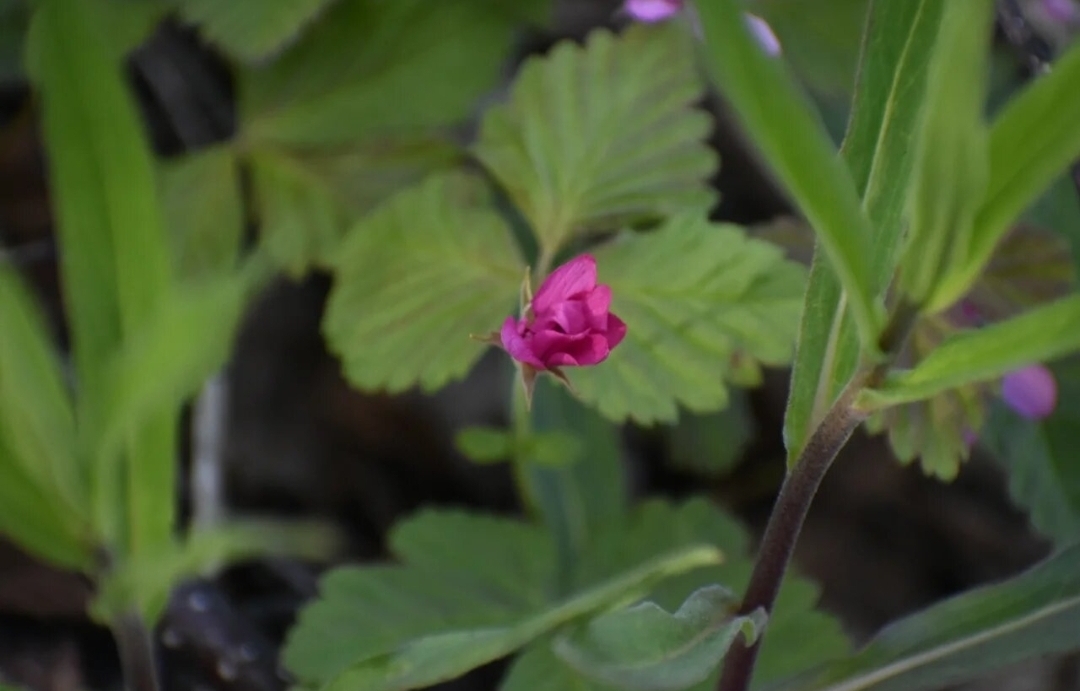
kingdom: Plantae
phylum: Tracheophyta
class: Magnoliopsida
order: Rosales
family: Rosaceae
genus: Rubus
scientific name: Rubus arcticus
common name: Arctic bramble
